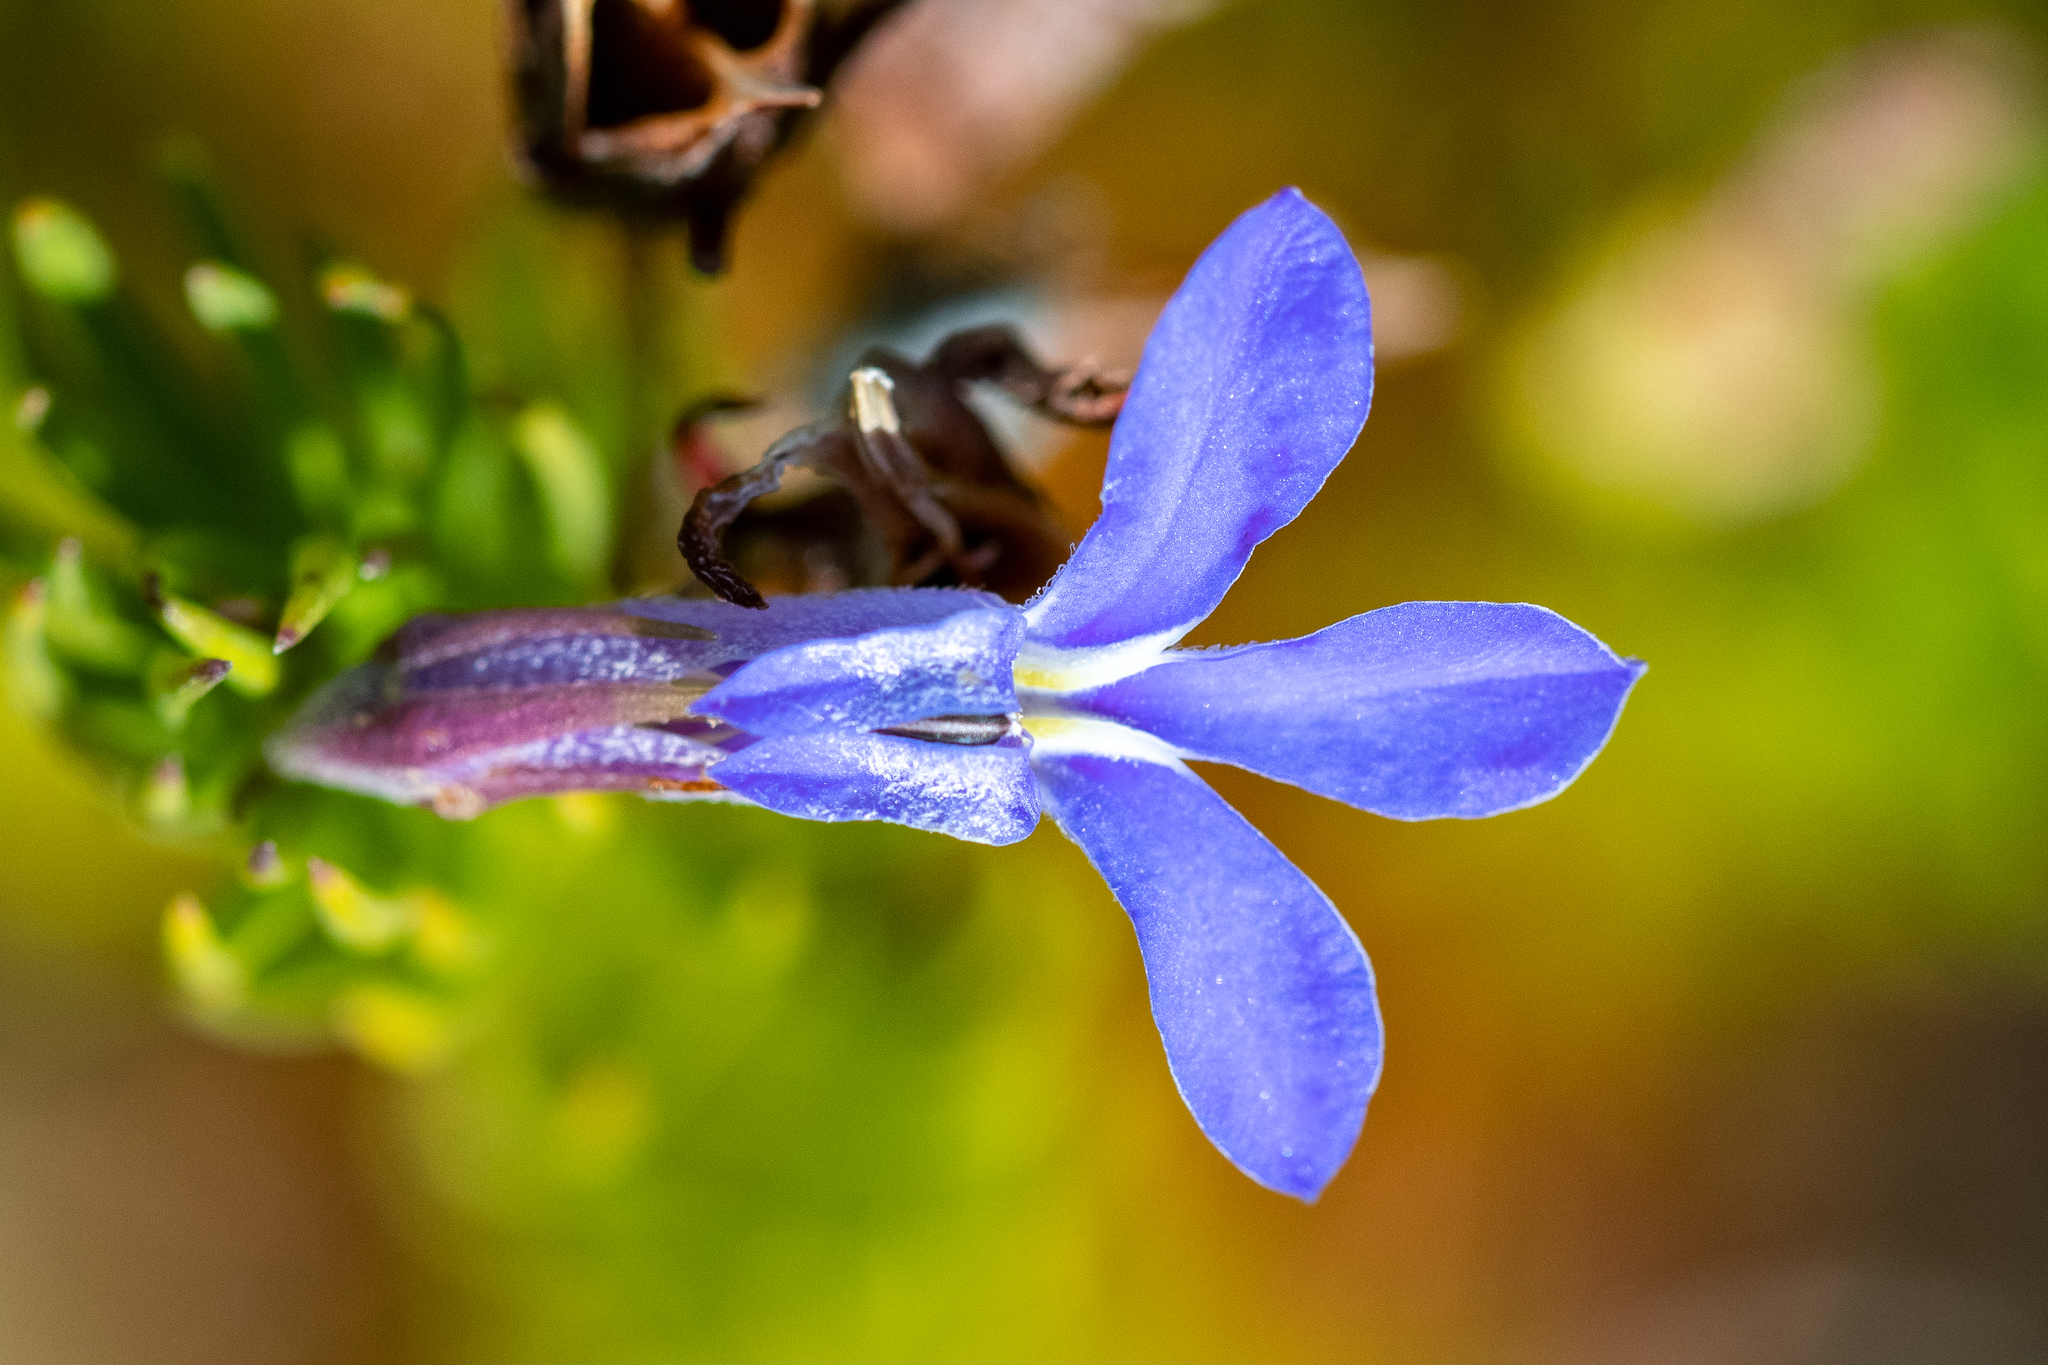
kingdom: Plantae
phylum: Tracheophyta
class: Magnoliopsida
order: Asterales
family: Campanulaceae
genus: Lobelia
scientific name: Lobelia pinifolia
